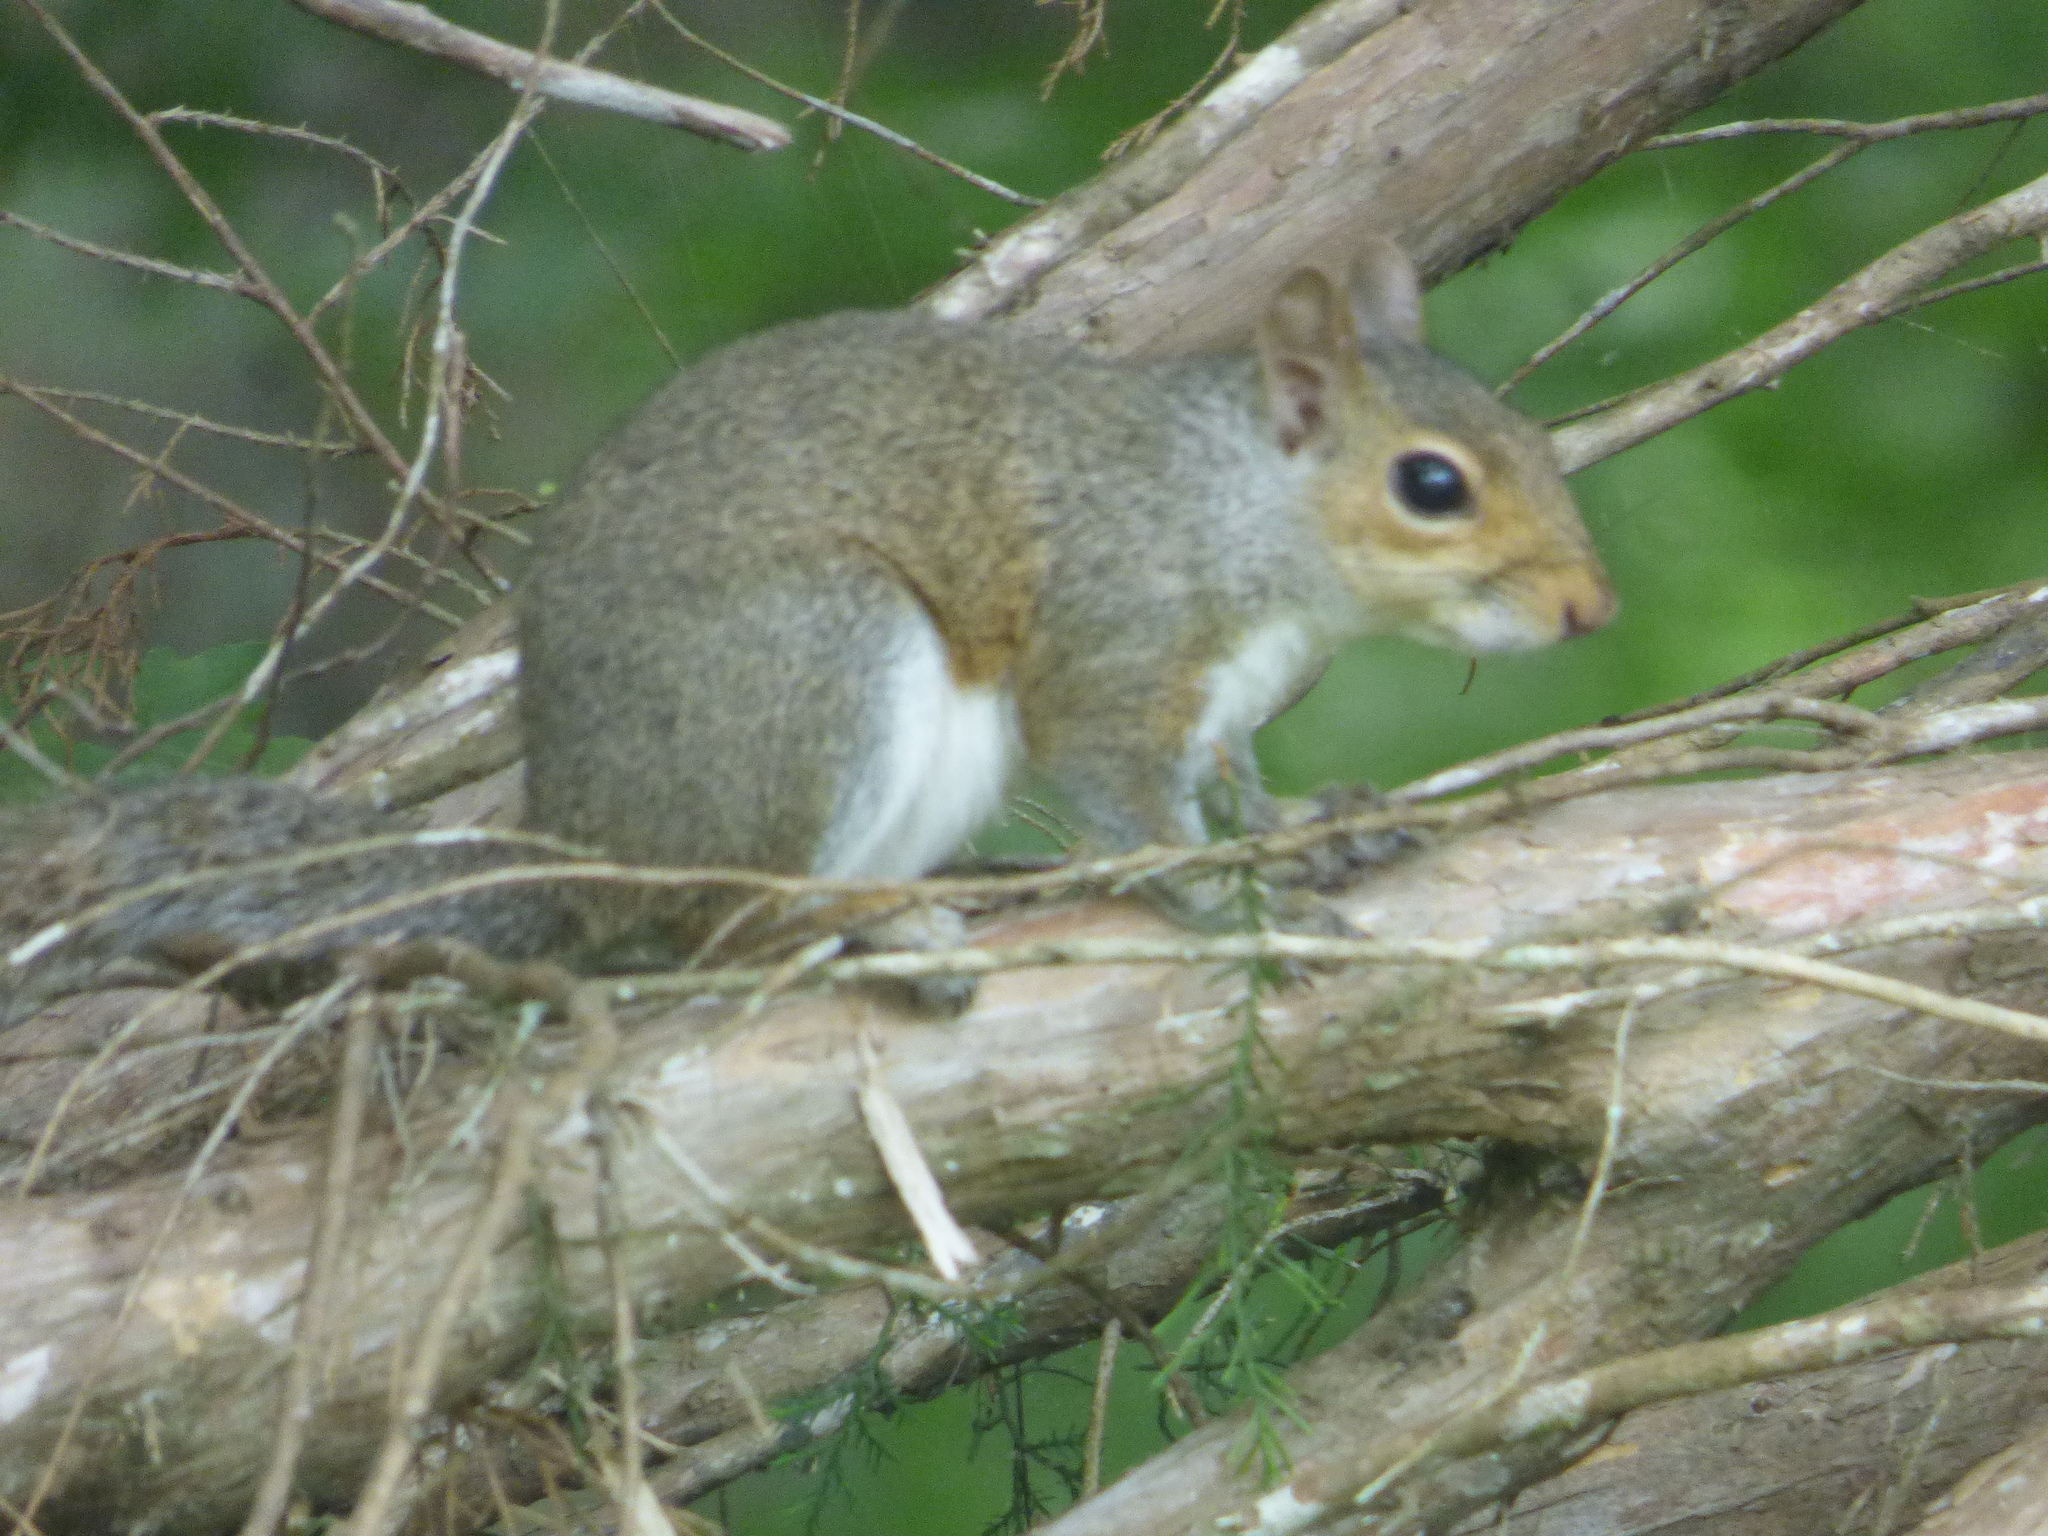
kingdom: Animalia
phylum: Chordata
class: Mammalia
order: Rodentia
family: Sciuridae
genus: Sciurus
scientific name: Sciurus carolinensis
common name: Eastern gray squirrel
